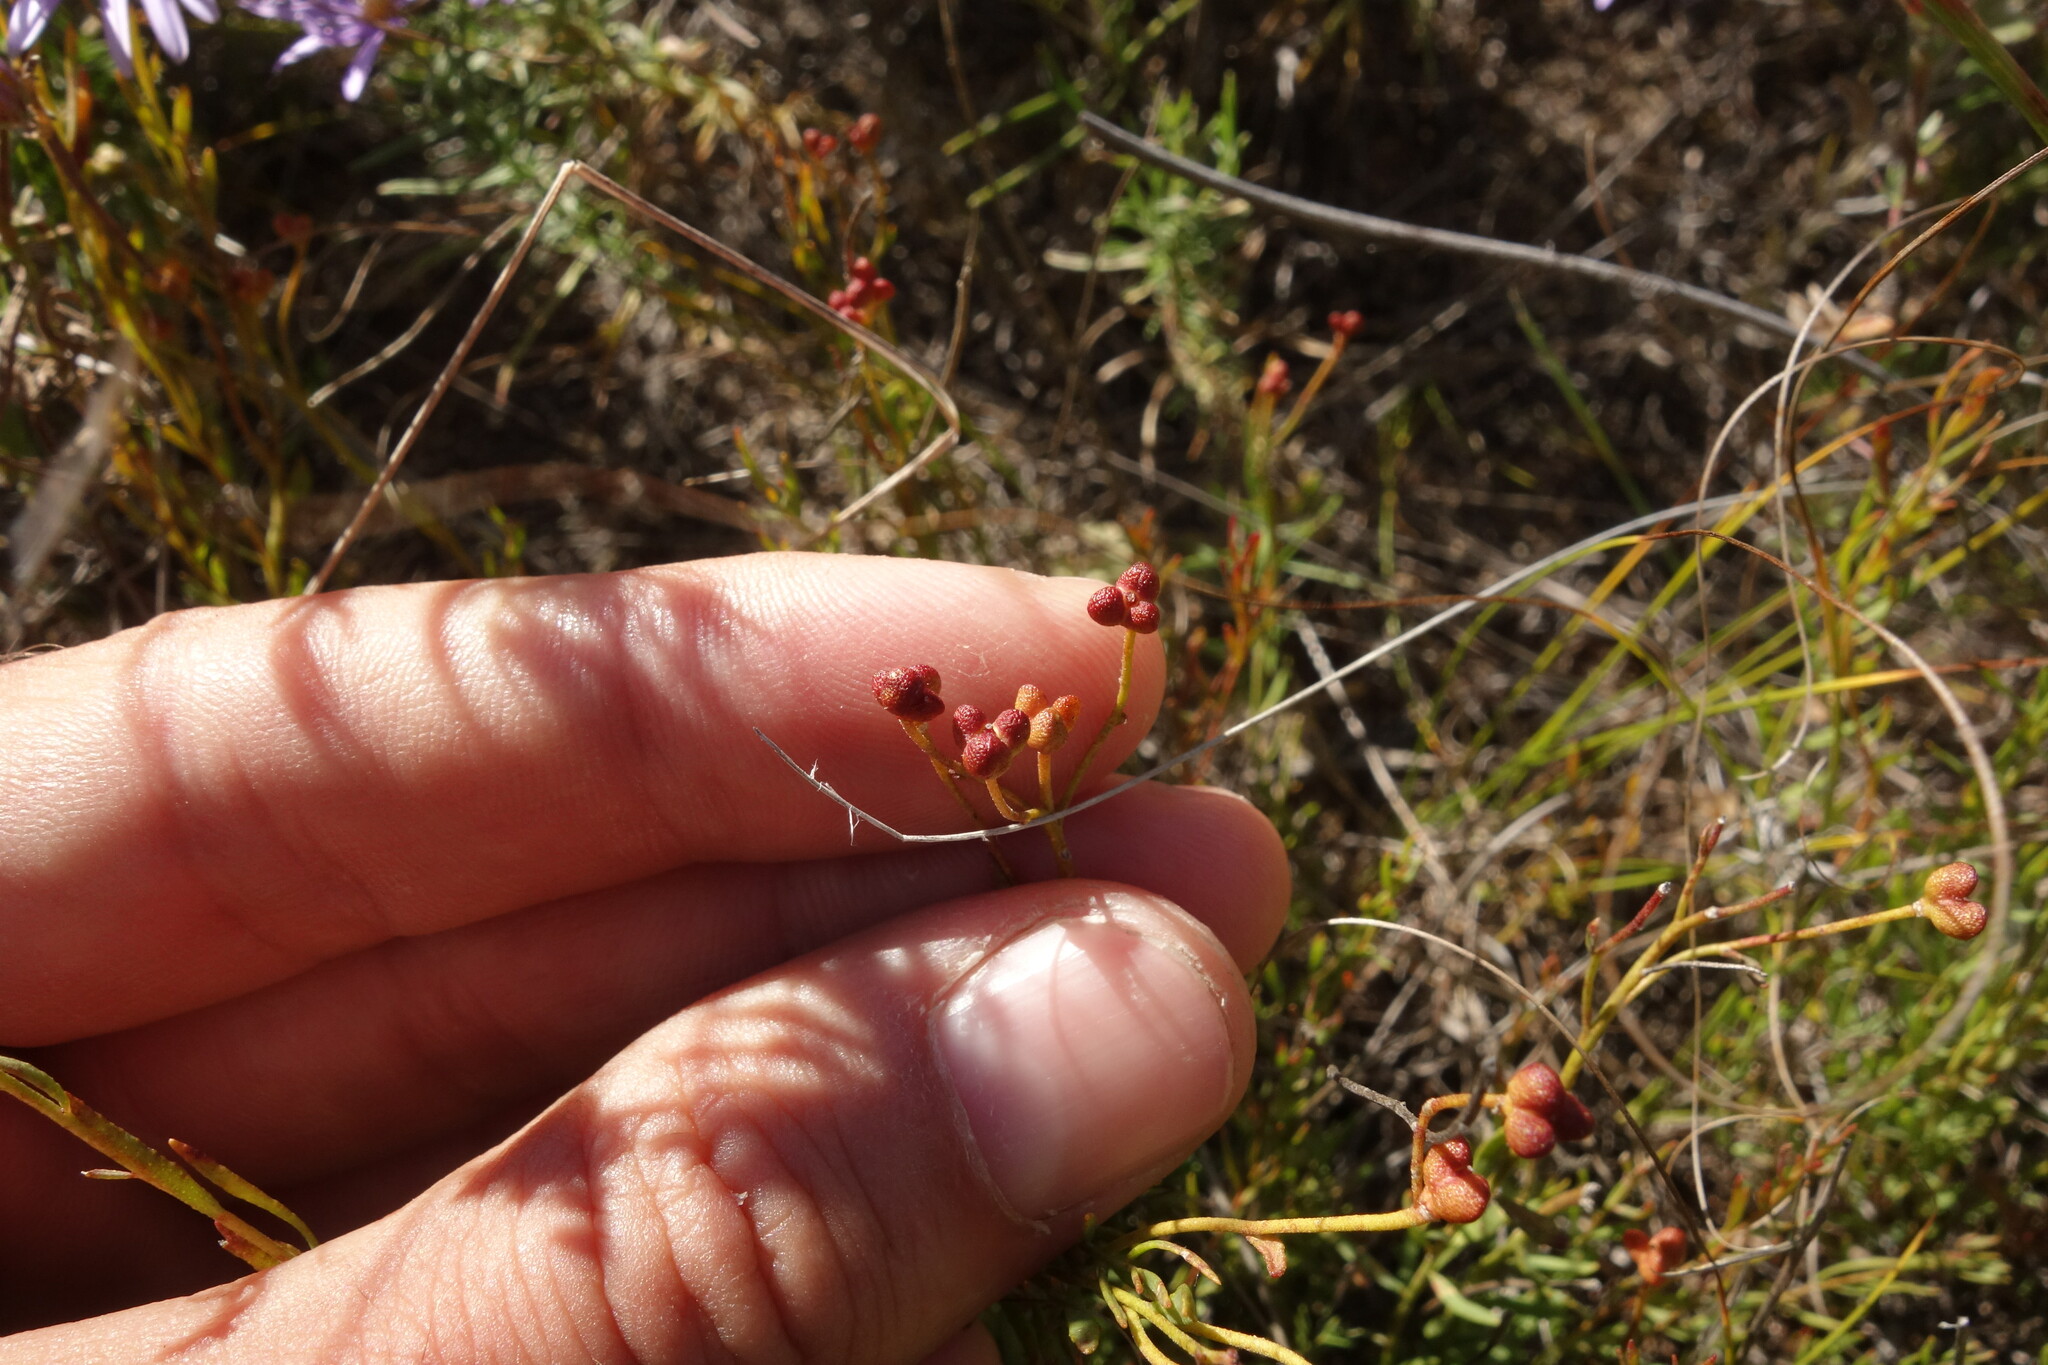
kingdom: Plantae
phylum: Tracheophyta
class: Magnoliopsida
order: Sapindales
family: Rutaceae
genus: Haplophyllum
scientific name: Haplophyllum dauricum
